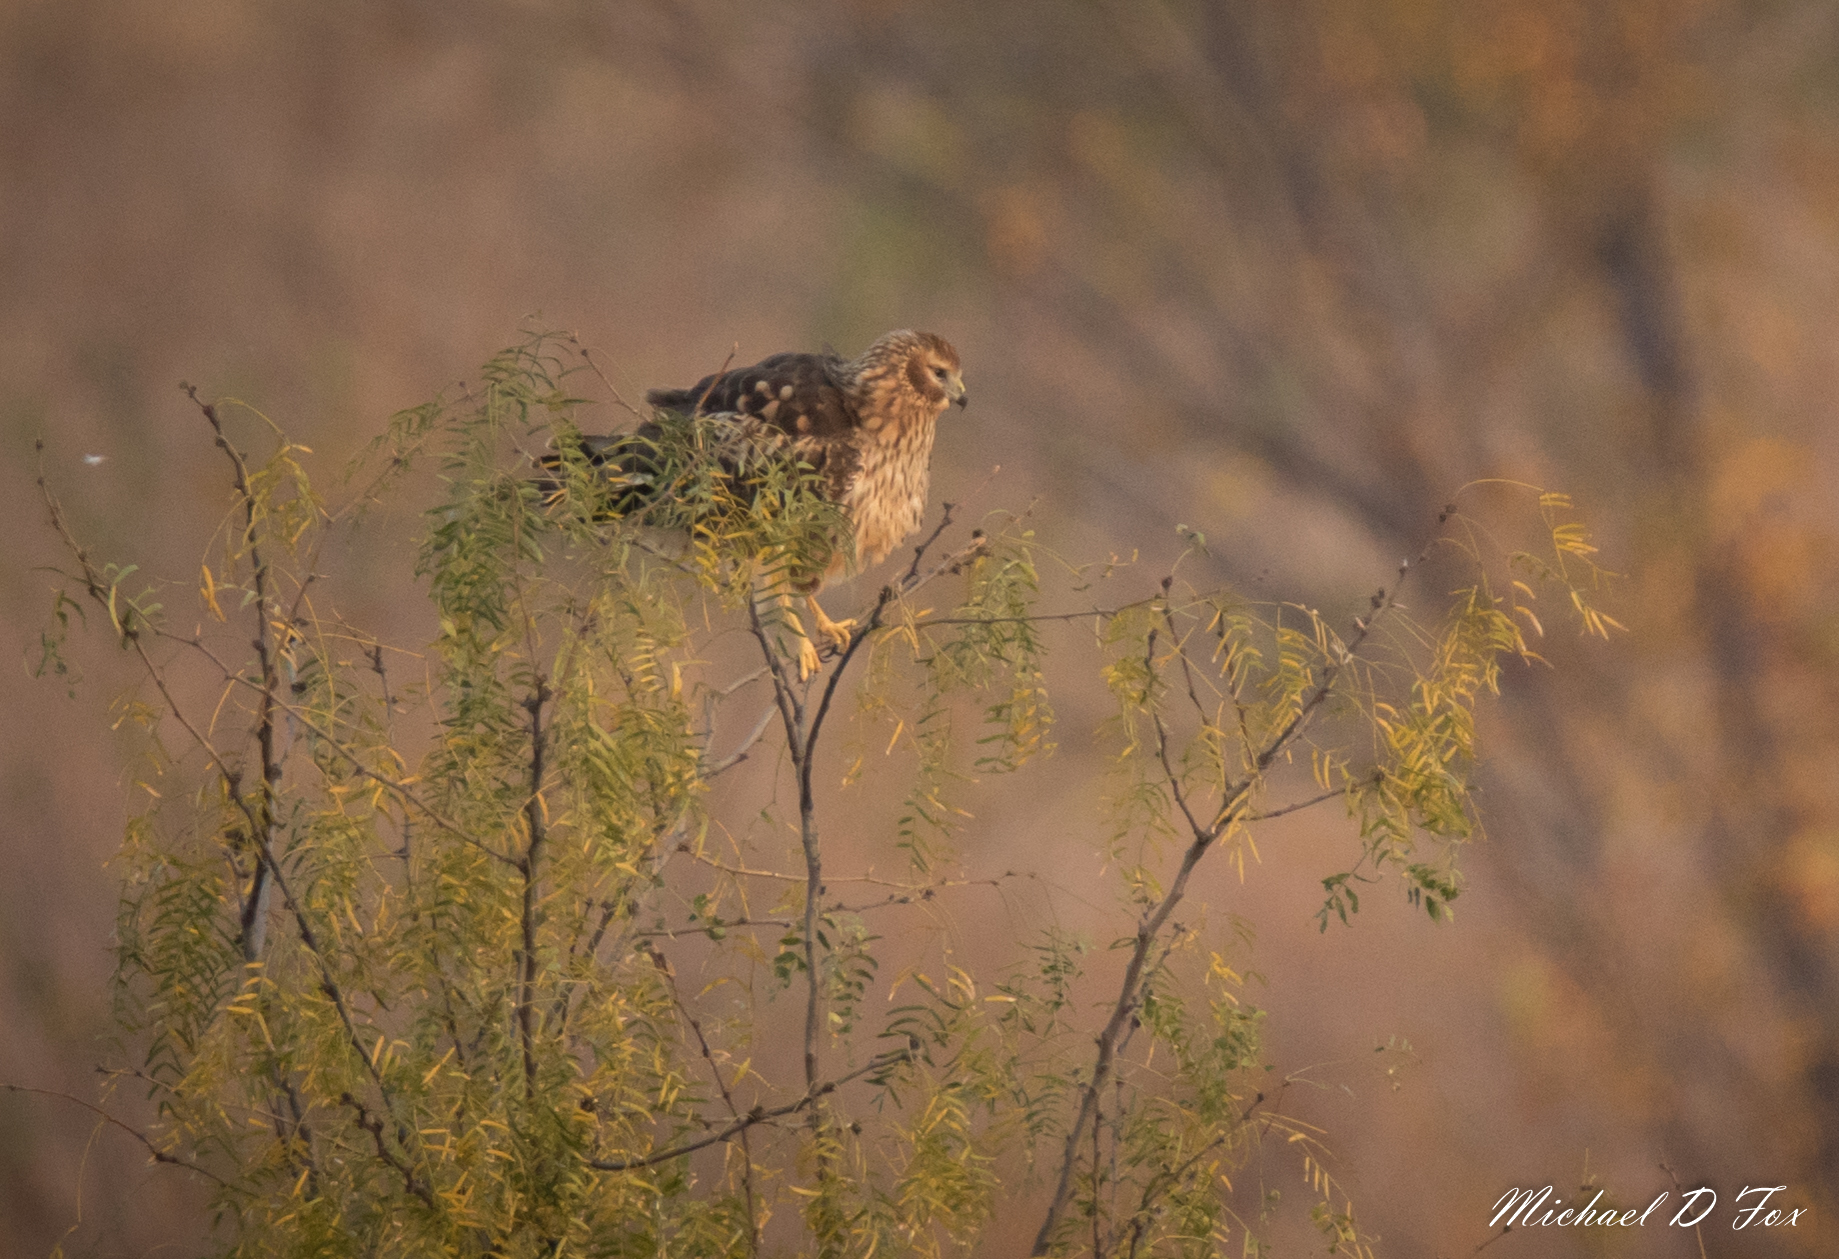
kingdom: Animalia
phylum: Chordata
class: Aves
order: Accipitriformes
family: Accipitridae
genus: Circus
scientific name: Circus cyaneus
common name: Hen harrier
